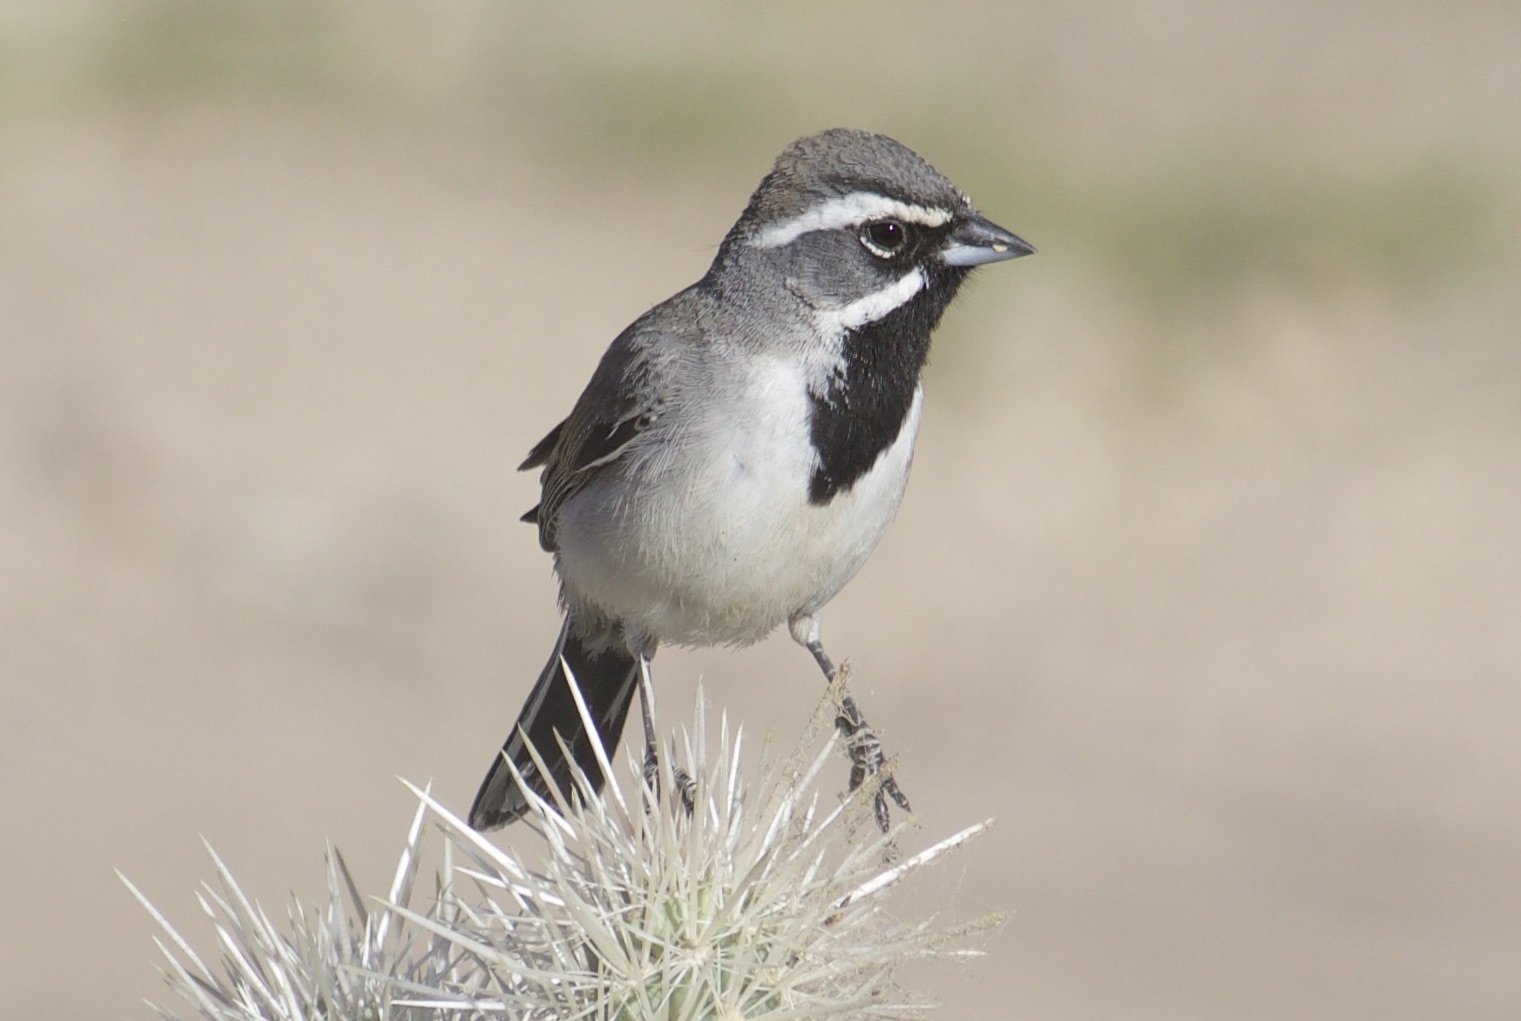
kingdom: Animalia
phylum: Chordata
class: Aves
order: Passeriformes
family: Passerellidae
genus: Amphispiza
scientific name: Amphispiza bilineata
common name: Black-throated sparrow
